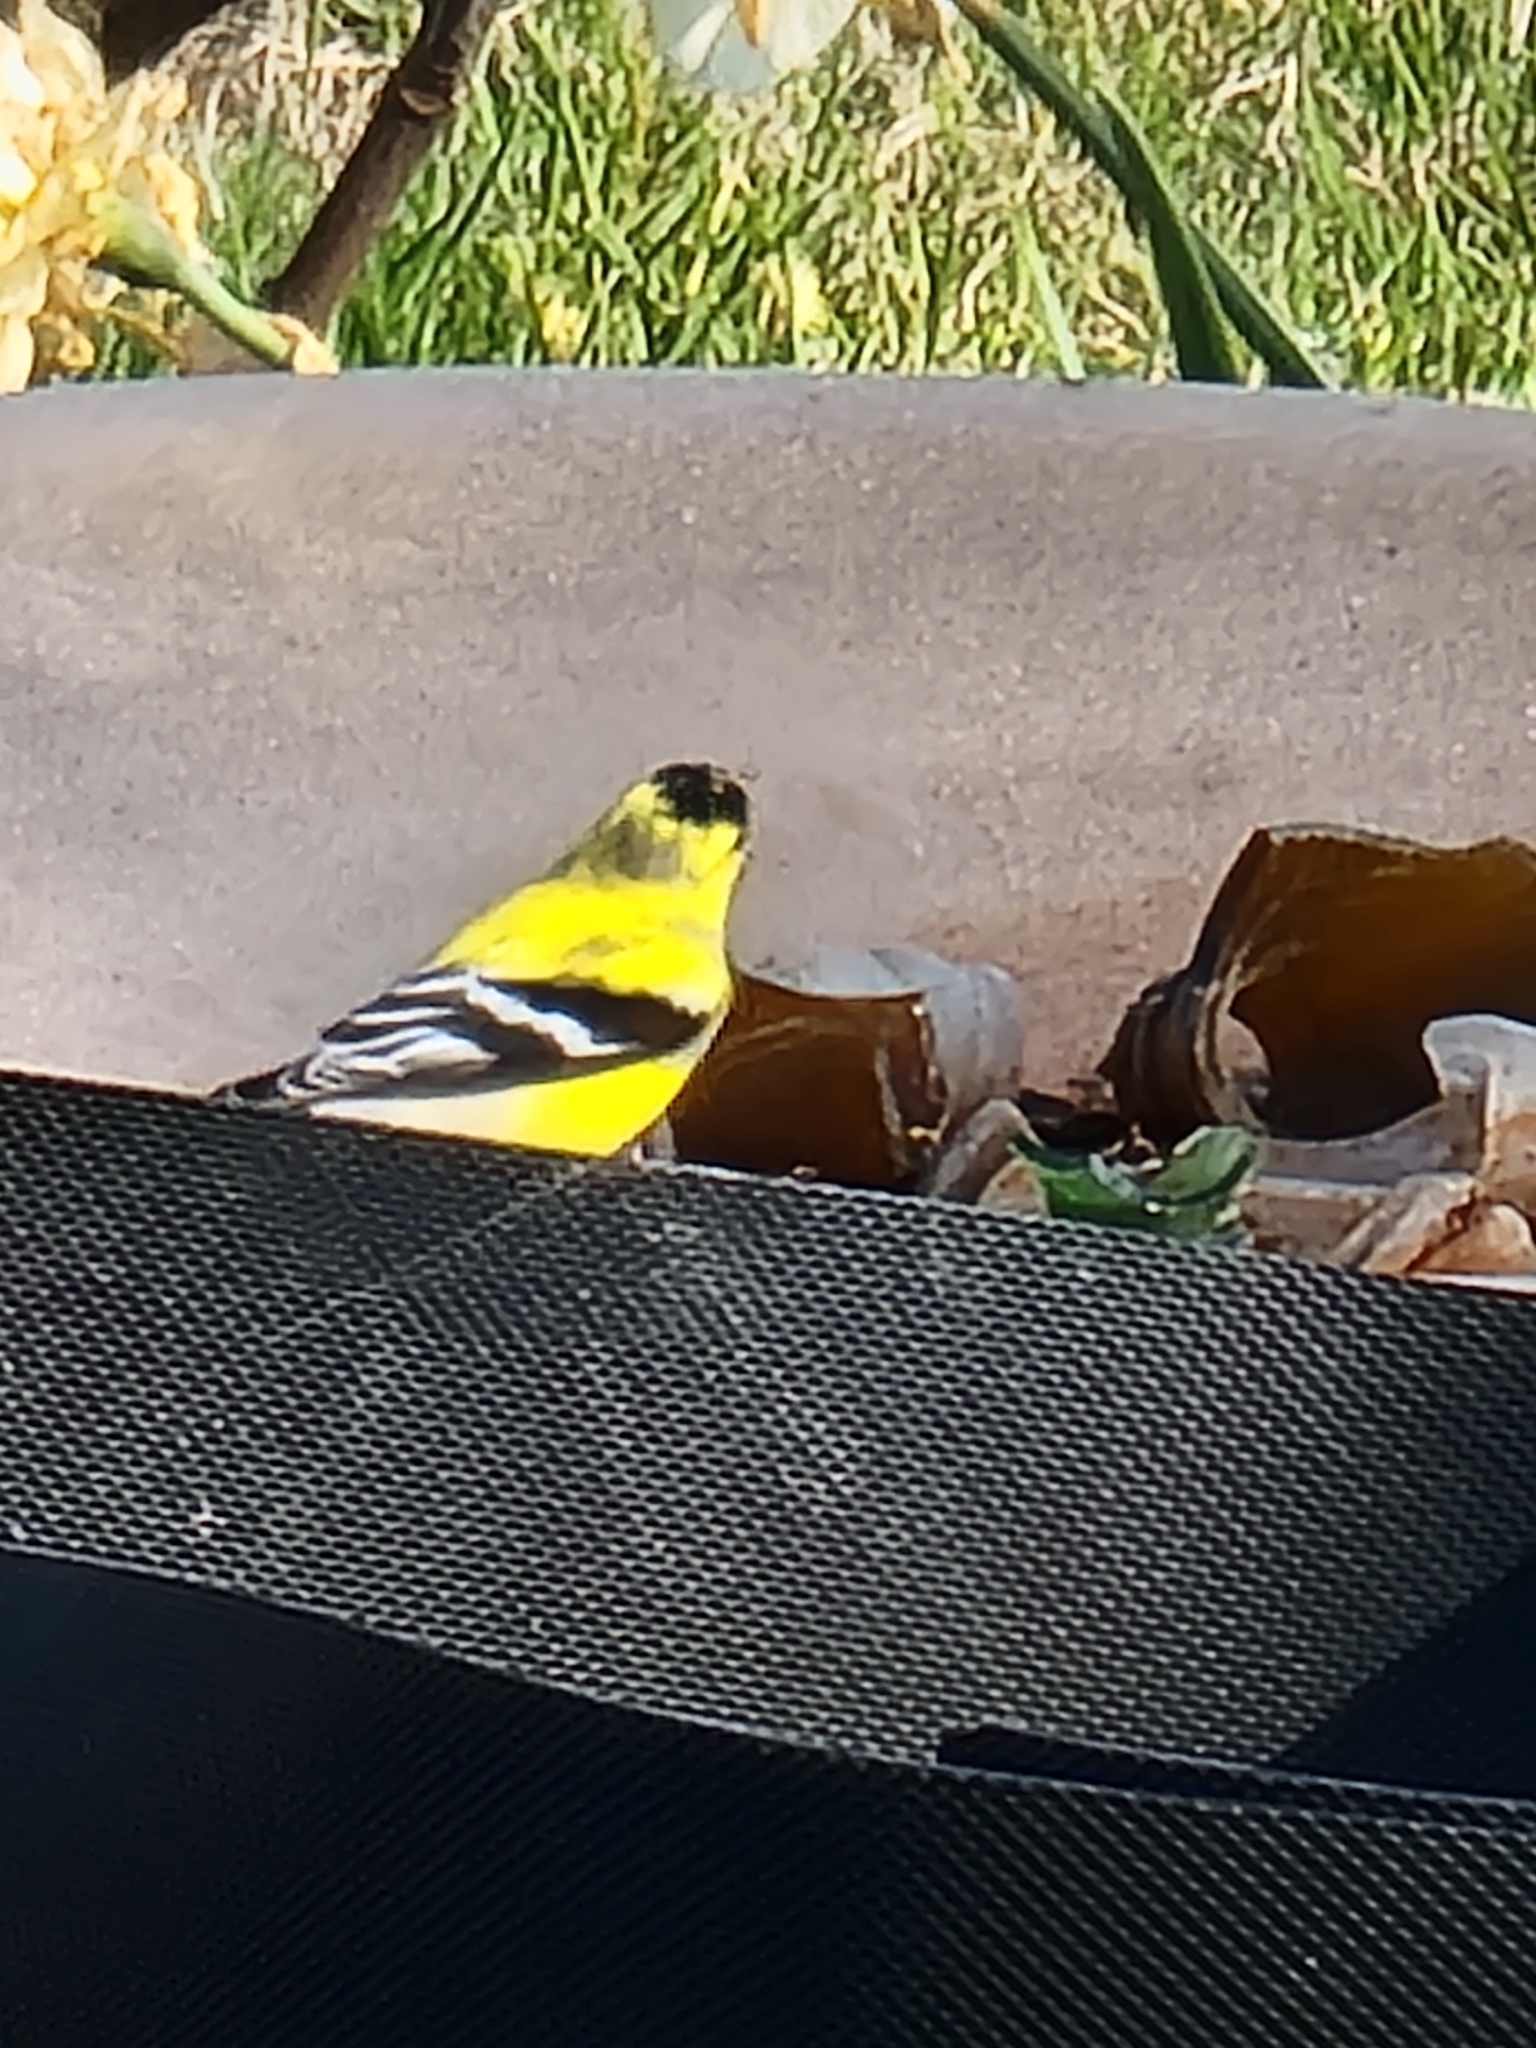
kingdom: Animalia
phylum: Chordata
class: Aves
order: Passeriformes
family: Fringillidae
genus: Spinus
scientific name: Spinus tristis
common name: American goldfinch
